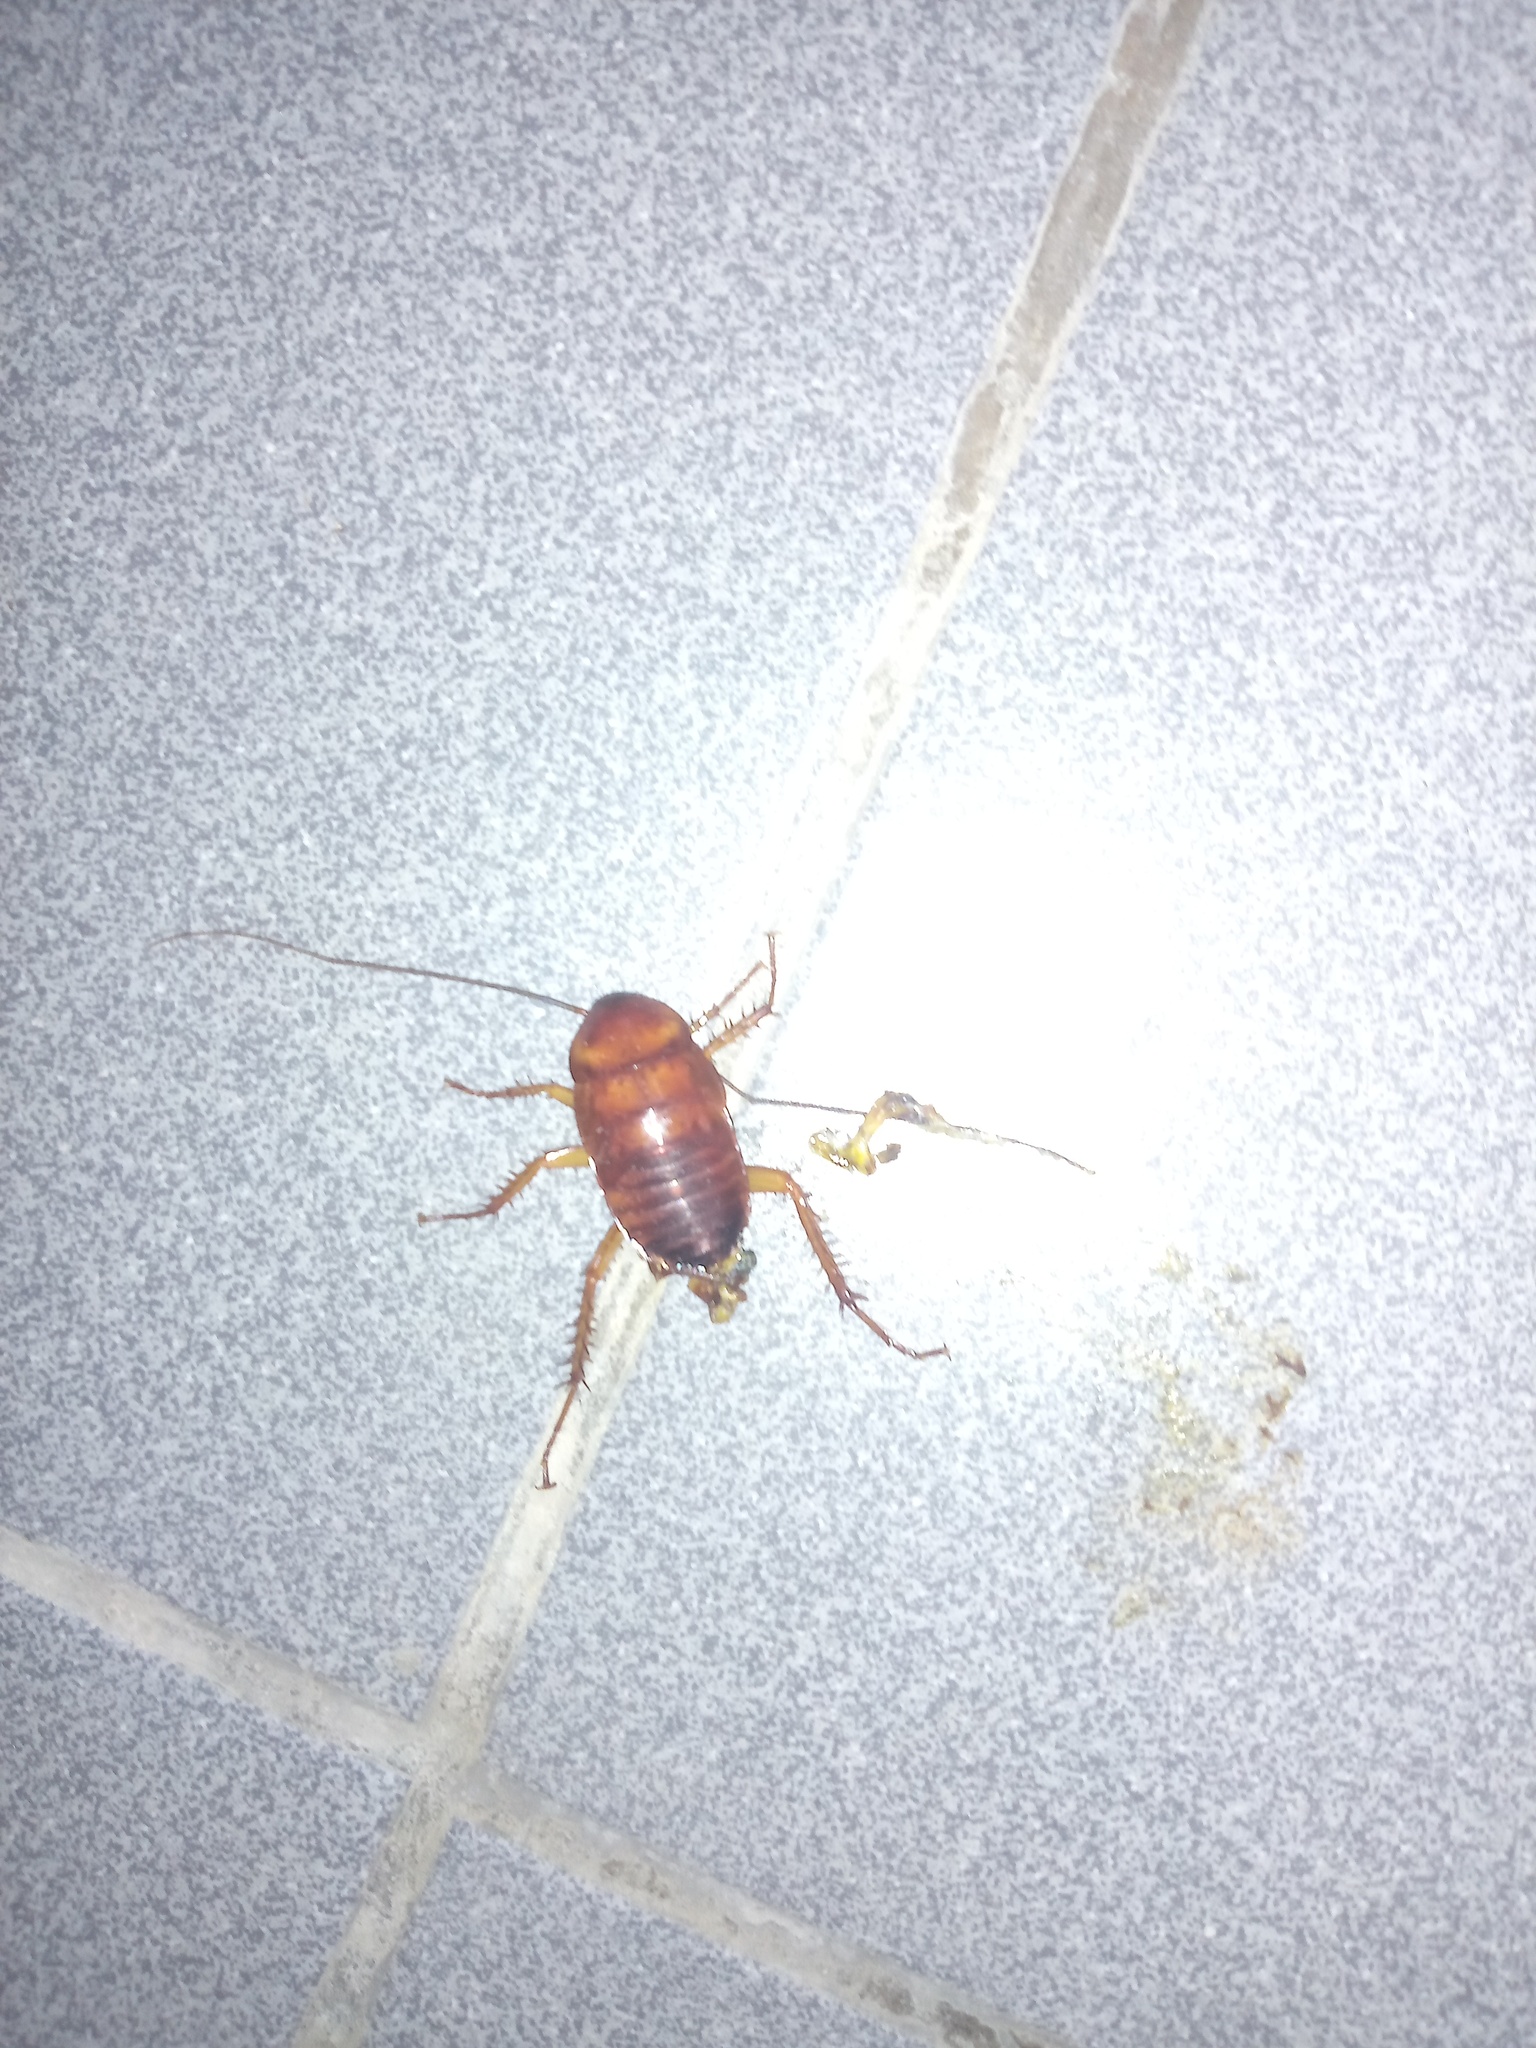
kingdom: Animalia
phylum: Arthropoda
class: Insecta
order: Blattodea
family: Blattidae
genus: Periplaneta
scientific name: Periplaneta americana
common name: American cockroach
